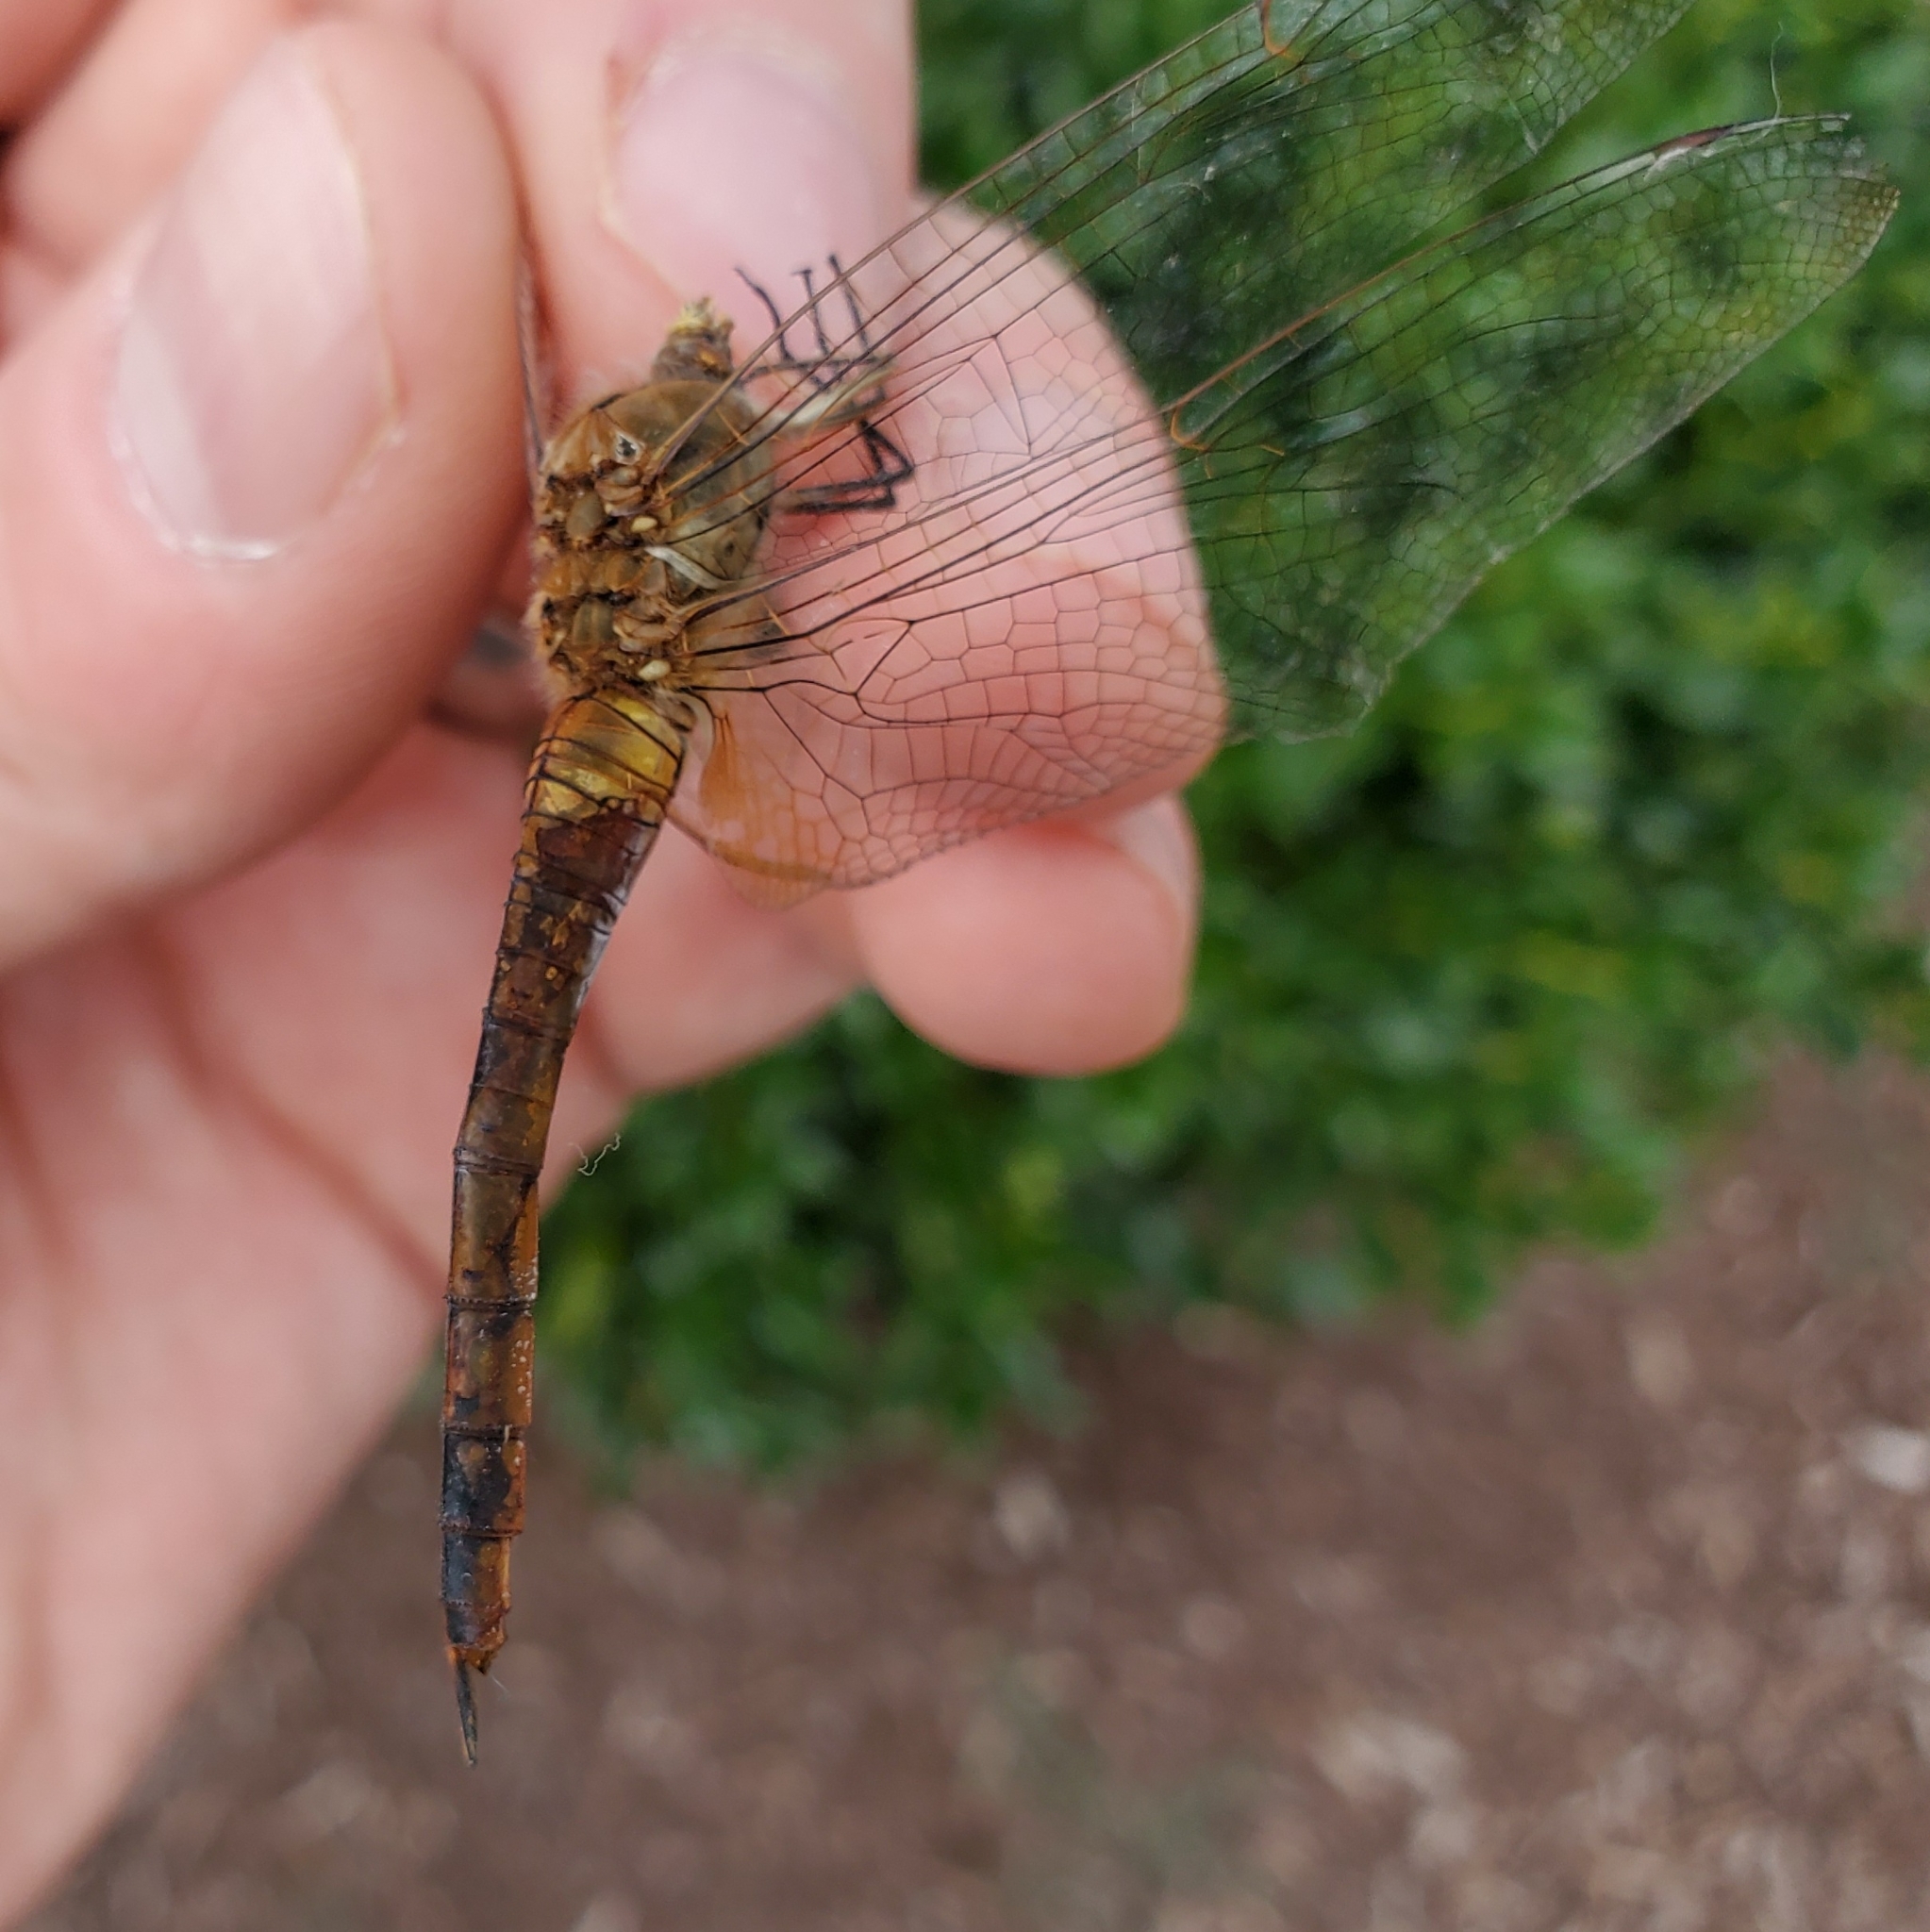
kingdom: Animalia
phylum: Arthropoda
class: Insecta
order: Odonata
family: Libellulidae
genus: Pantala
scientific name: Pantala flavescens
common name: Wandering glider
